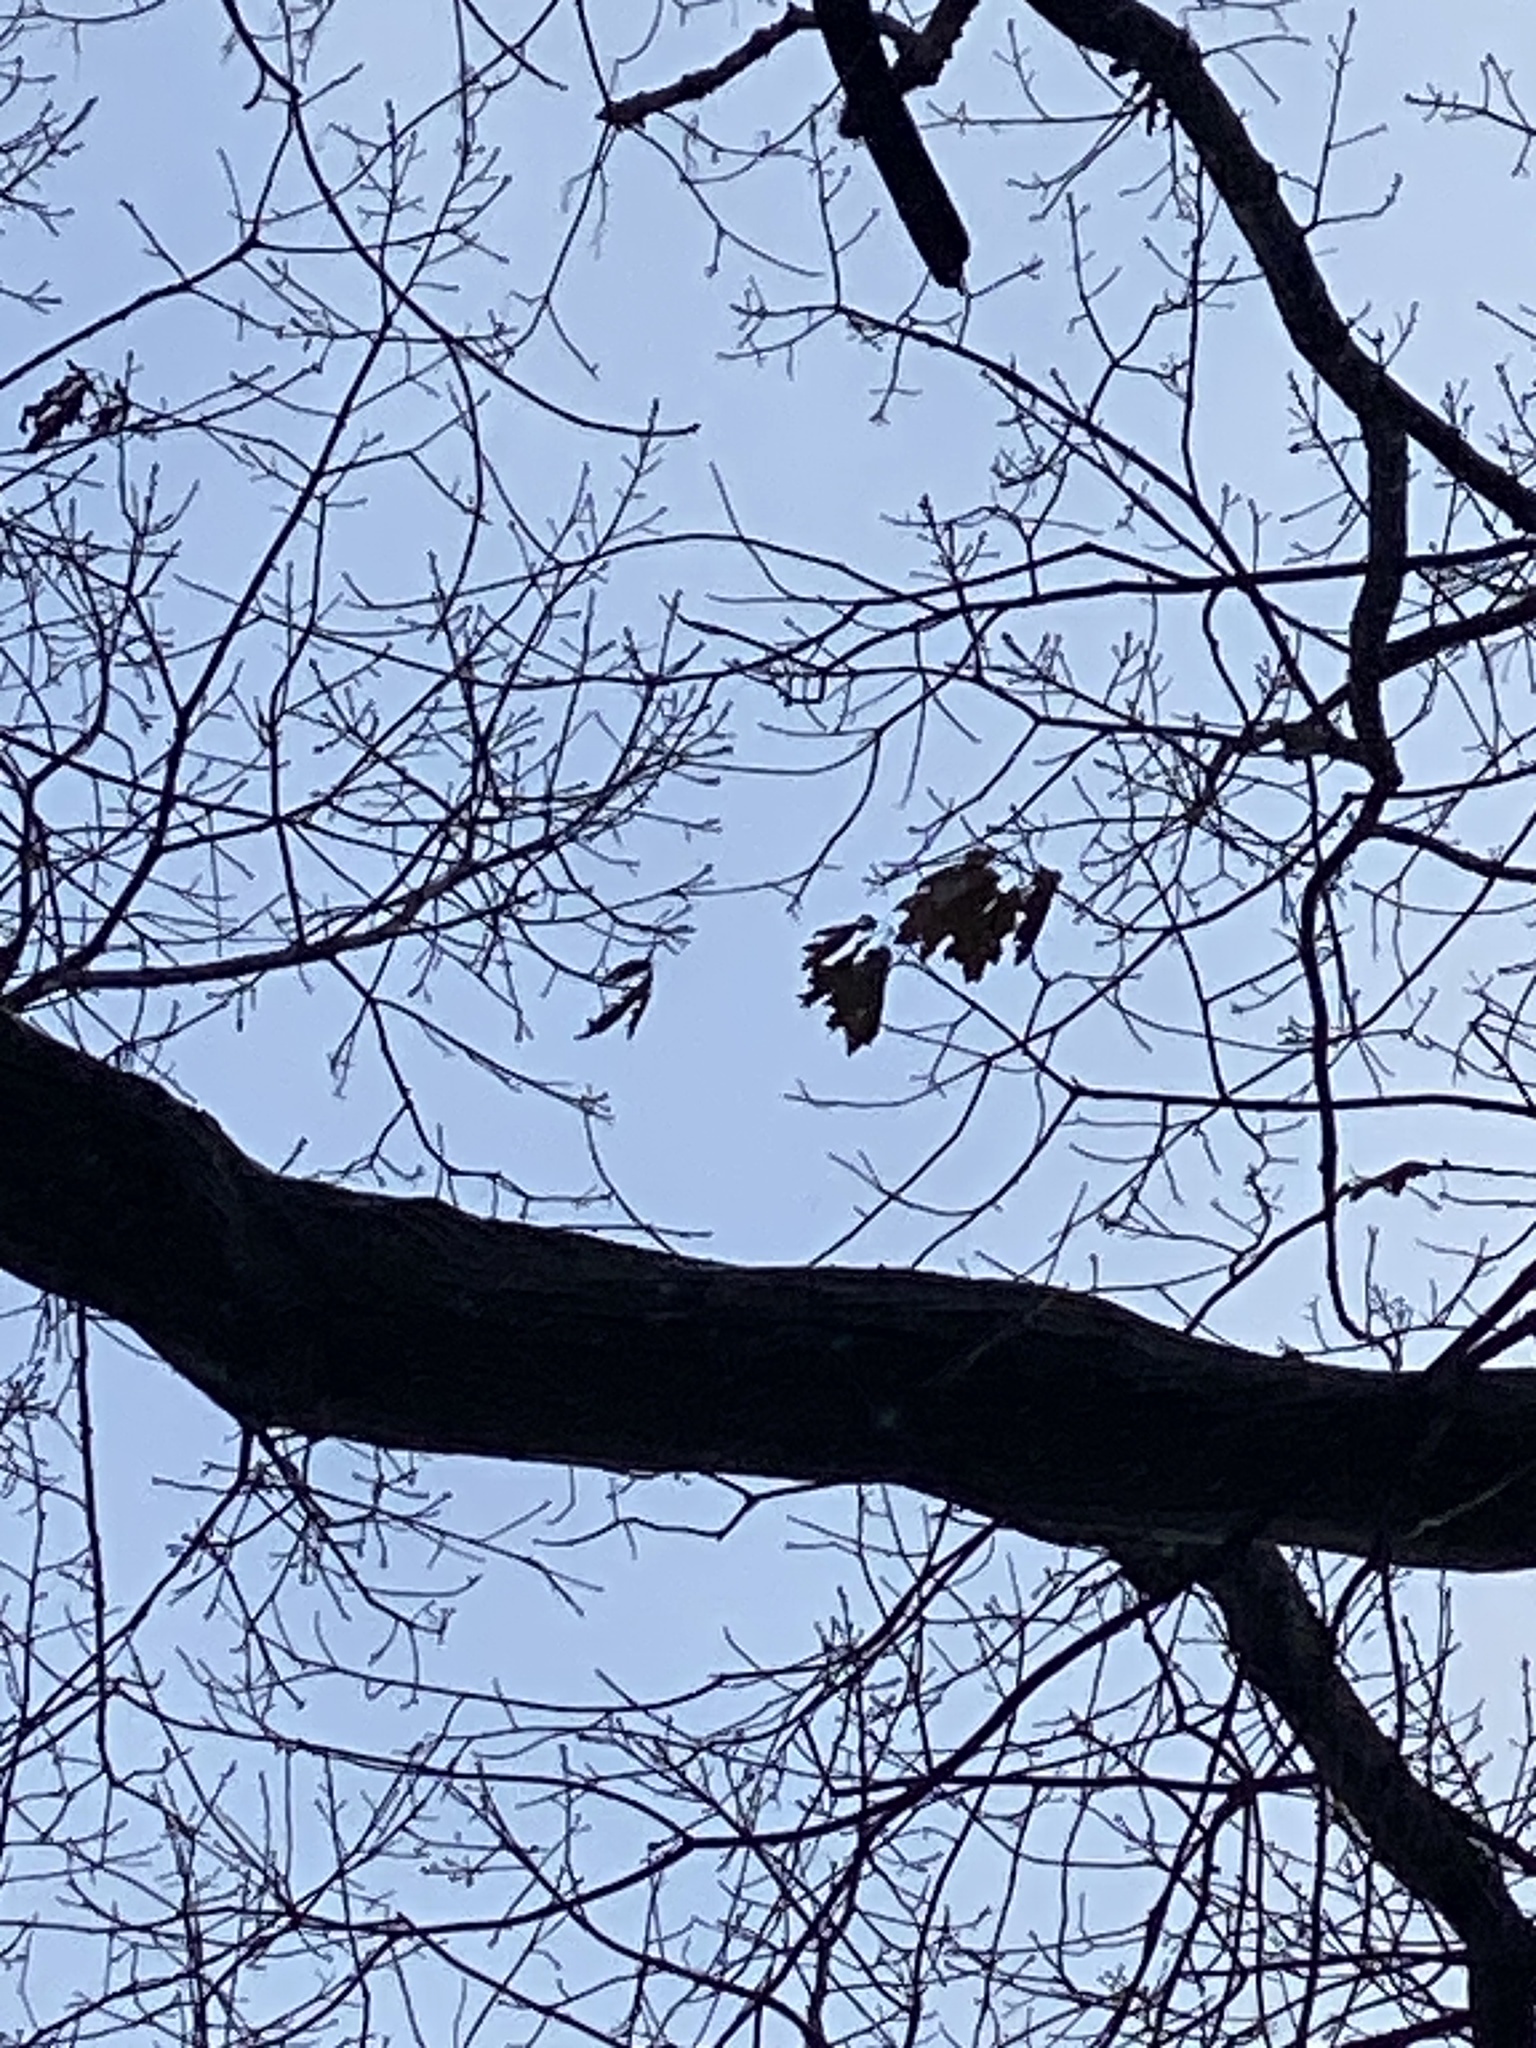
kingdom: Plantae
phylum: Tracheophyta
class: Magnoliopsida
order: Fagales
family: Fagaceae
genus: Quercus
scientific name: Quercus rubra
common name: Red oak
